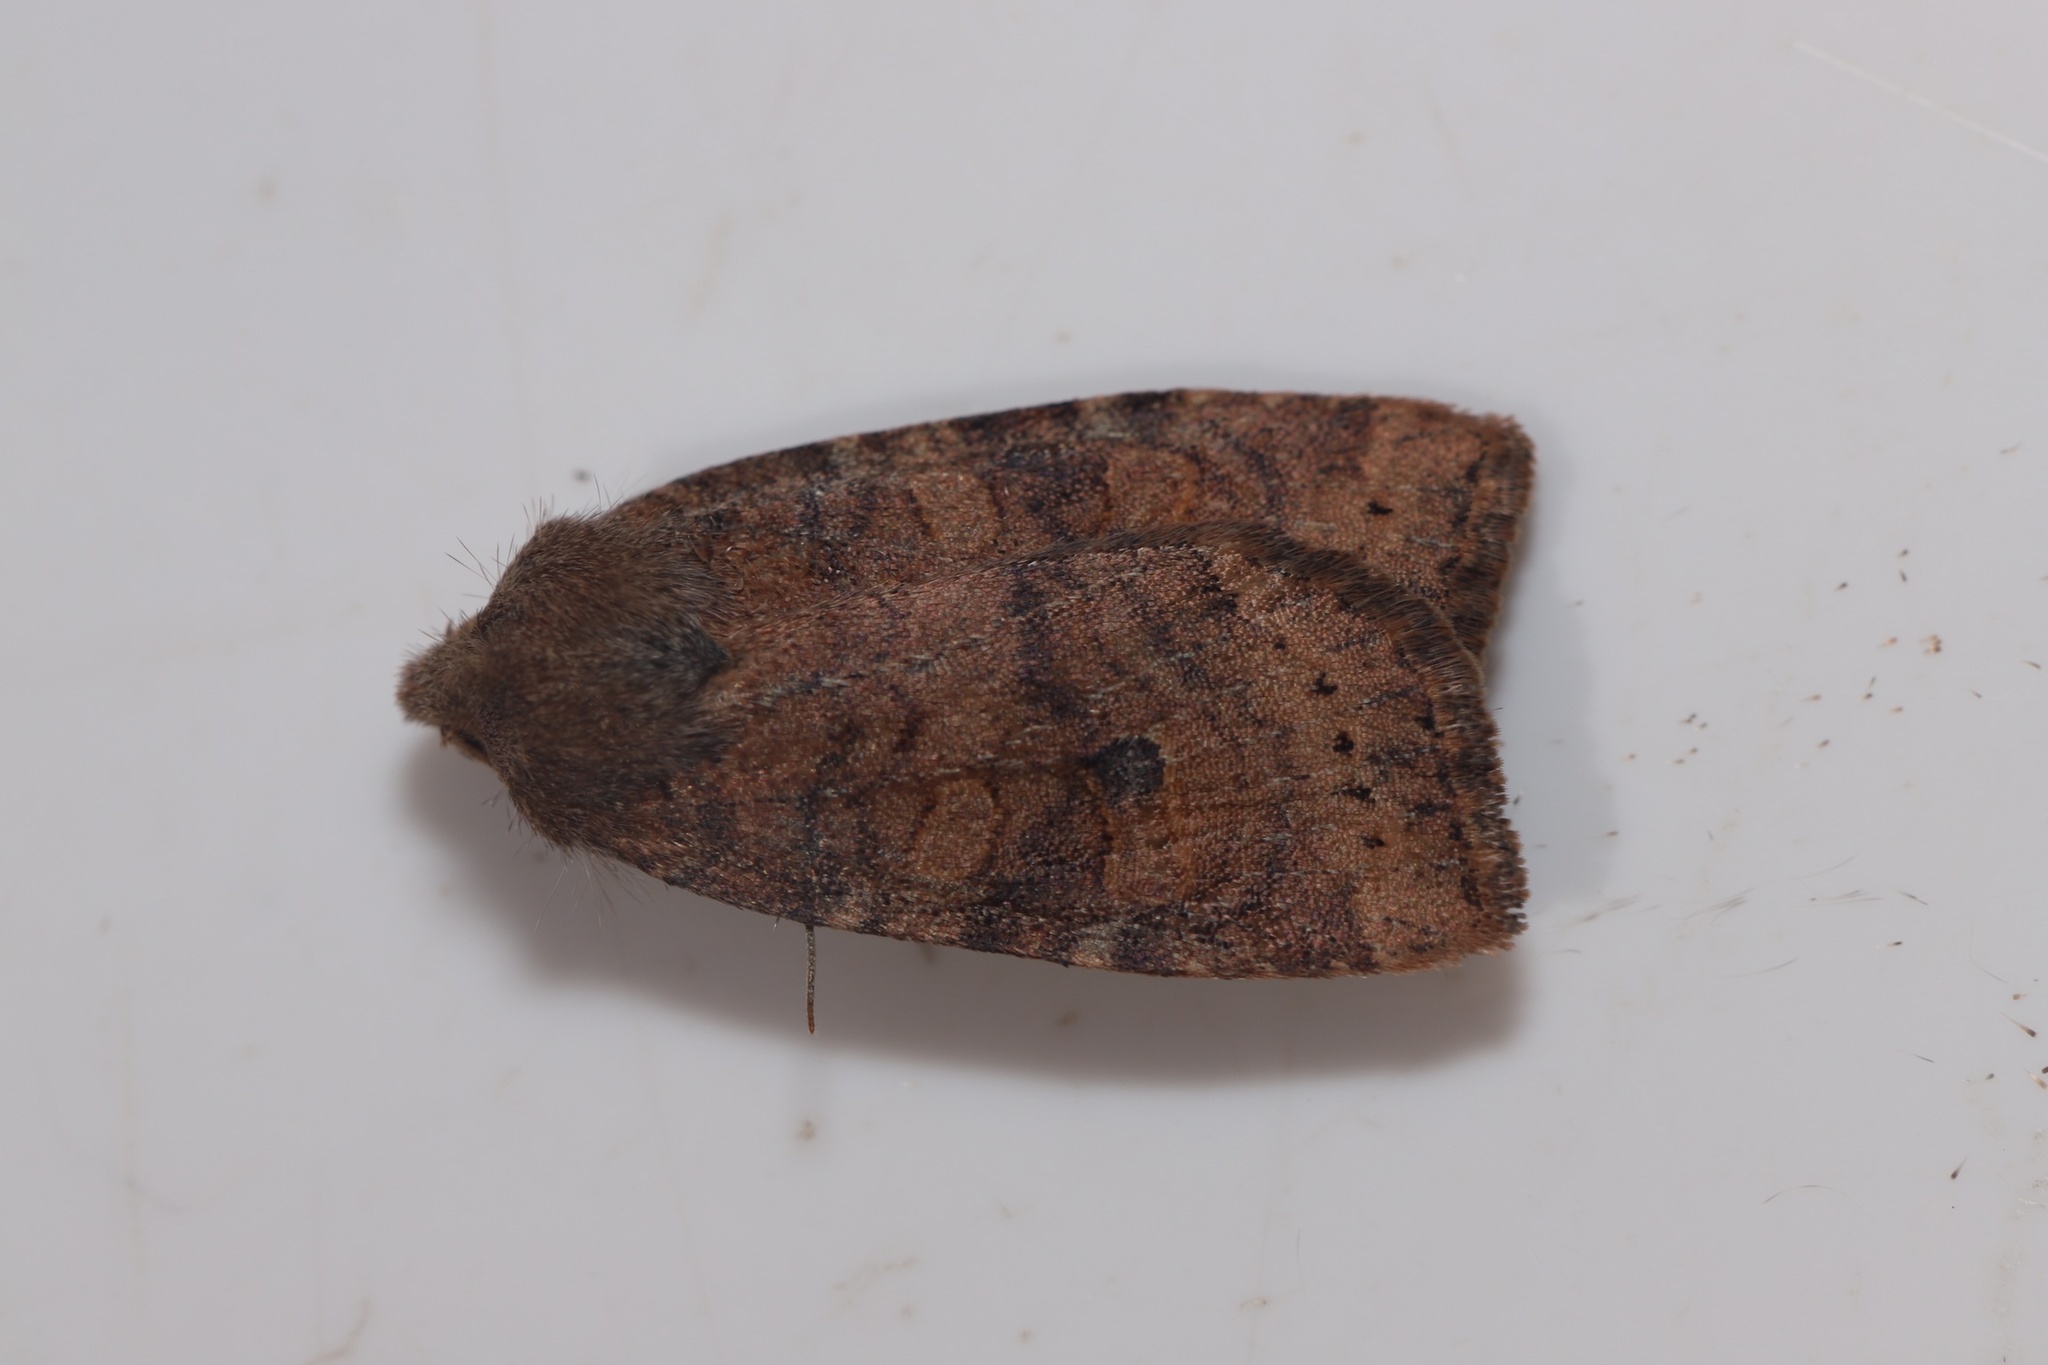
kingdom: Animalia
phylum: Arthropoda
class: Insecta
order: Lepidoptera
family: Noctuidae
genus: Anathix
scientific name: Anathix puta
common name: Puta sallow
